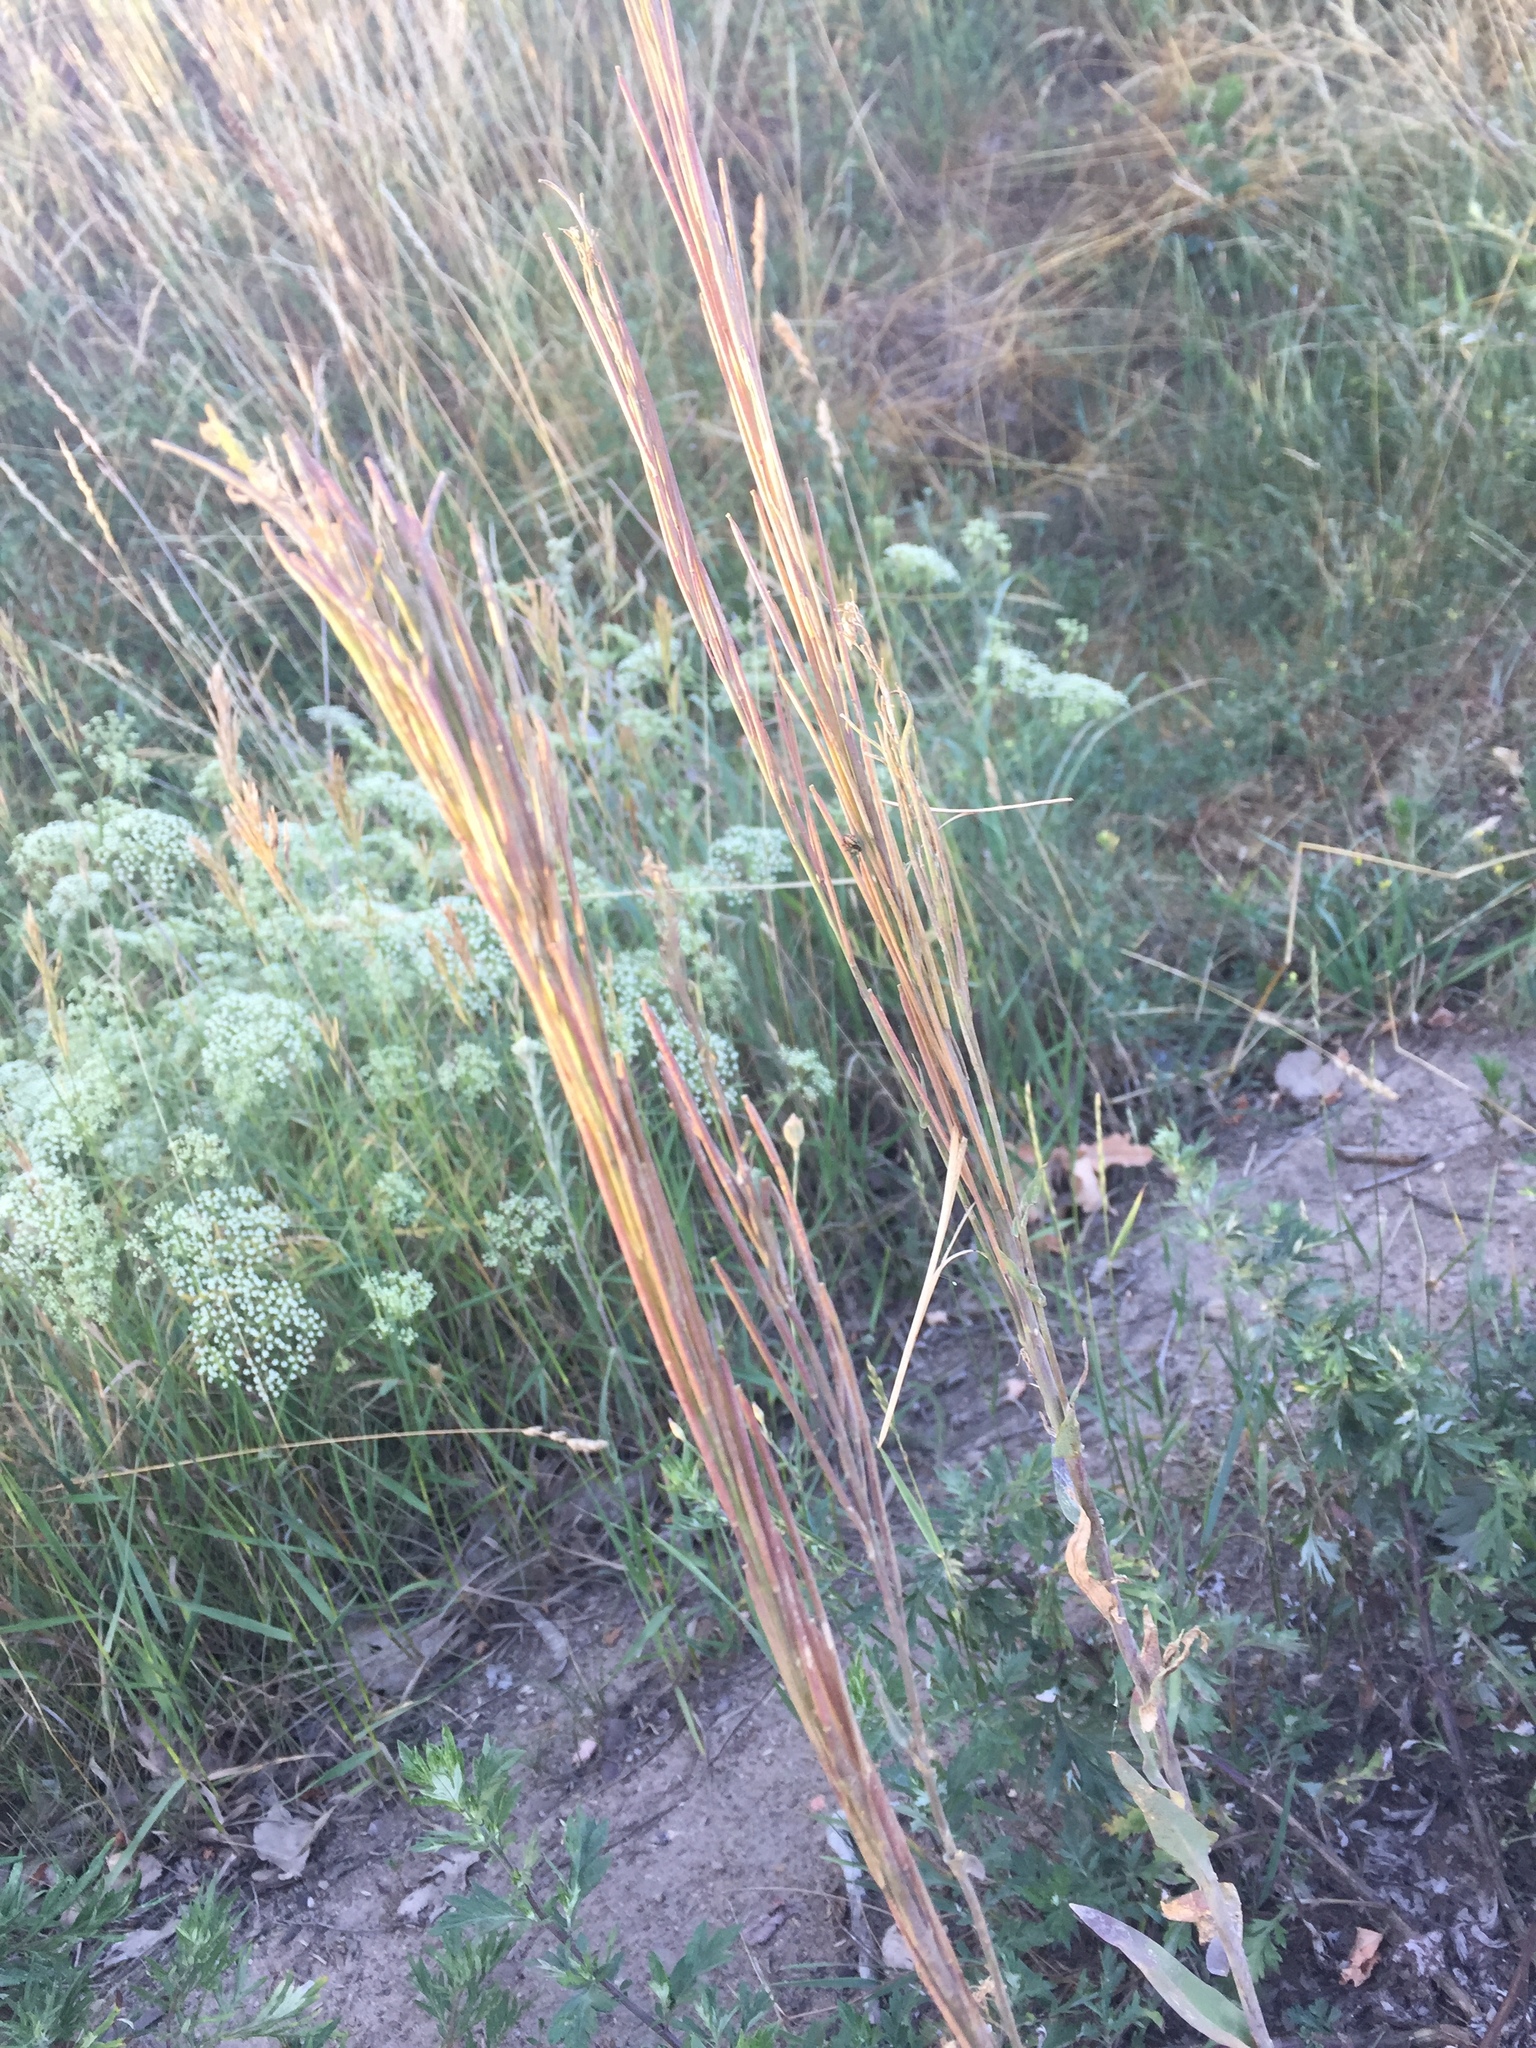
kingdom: Plantae
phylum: Tracheophyta
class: Magnoliopsida
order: Brassicales
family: Brassicaceae
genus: Arabis
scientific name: Arabis hirsuta
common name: Hairy rock-cress
